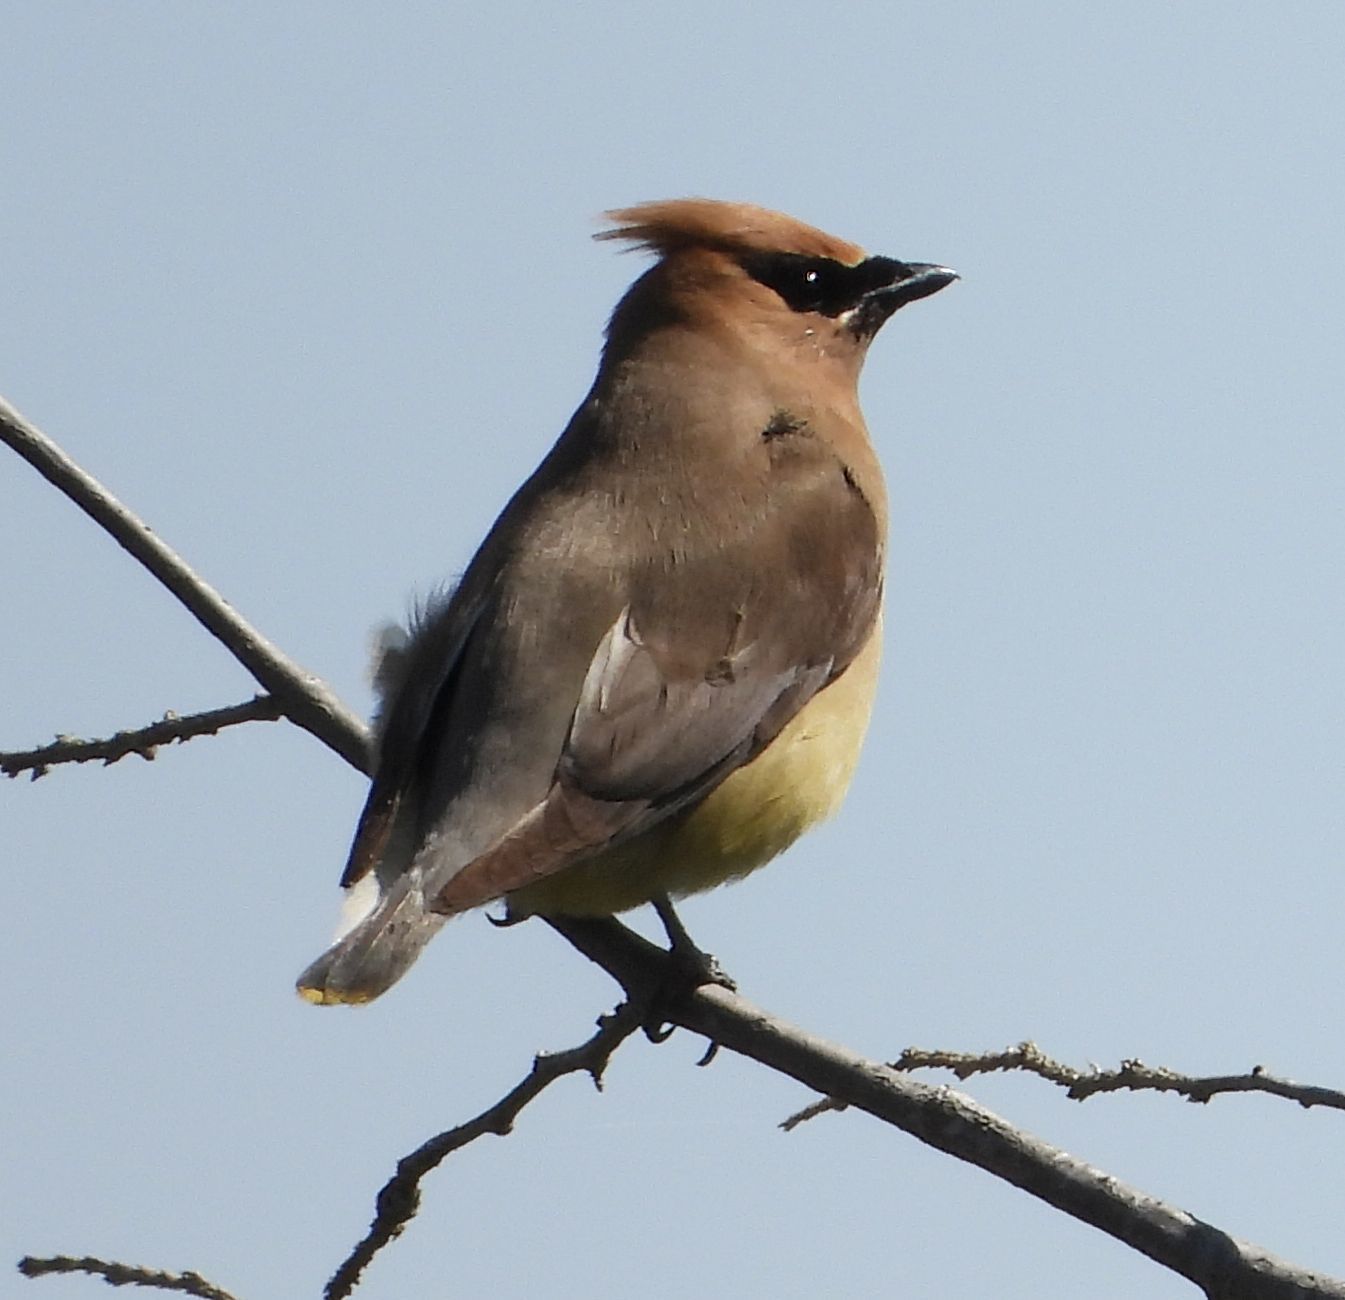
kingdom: Animalia
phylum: Chordata
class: Aves
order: Passeriformes
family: Bombycillidae
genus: Bombycilla
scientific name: Bombycilla cedrorum
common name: Cedar waxwing
